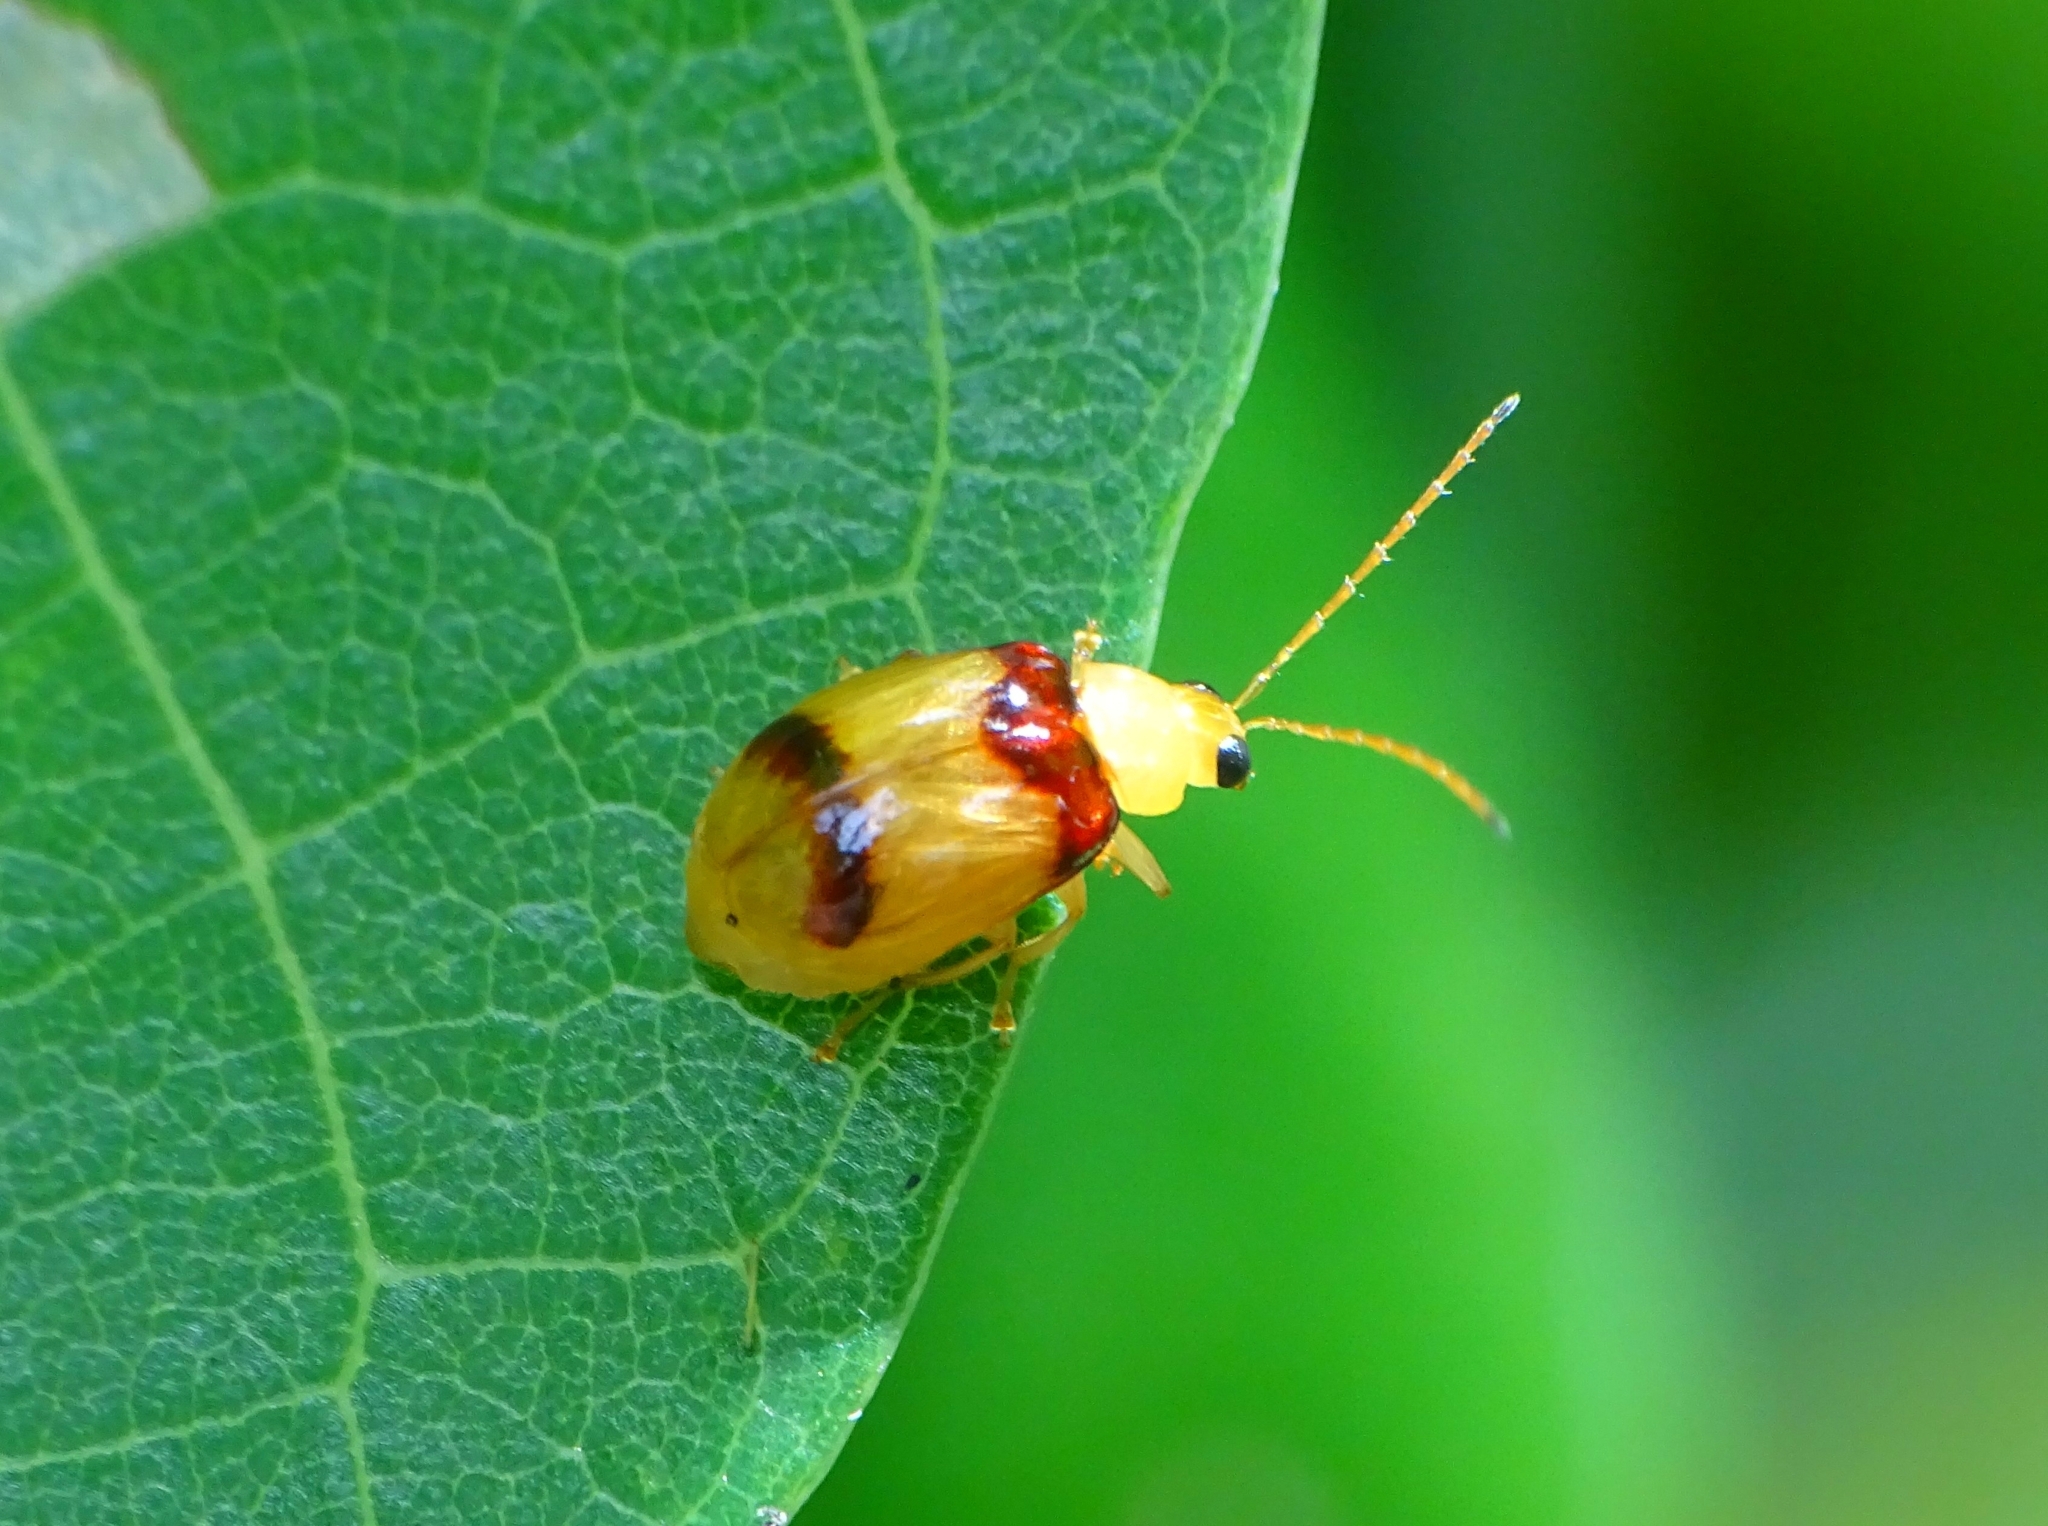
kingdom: Animalia
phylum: Arthropoda
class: Insecta
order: Coleoptera
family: Chrysomelidae
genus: Monolepta
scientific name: Monolepta
